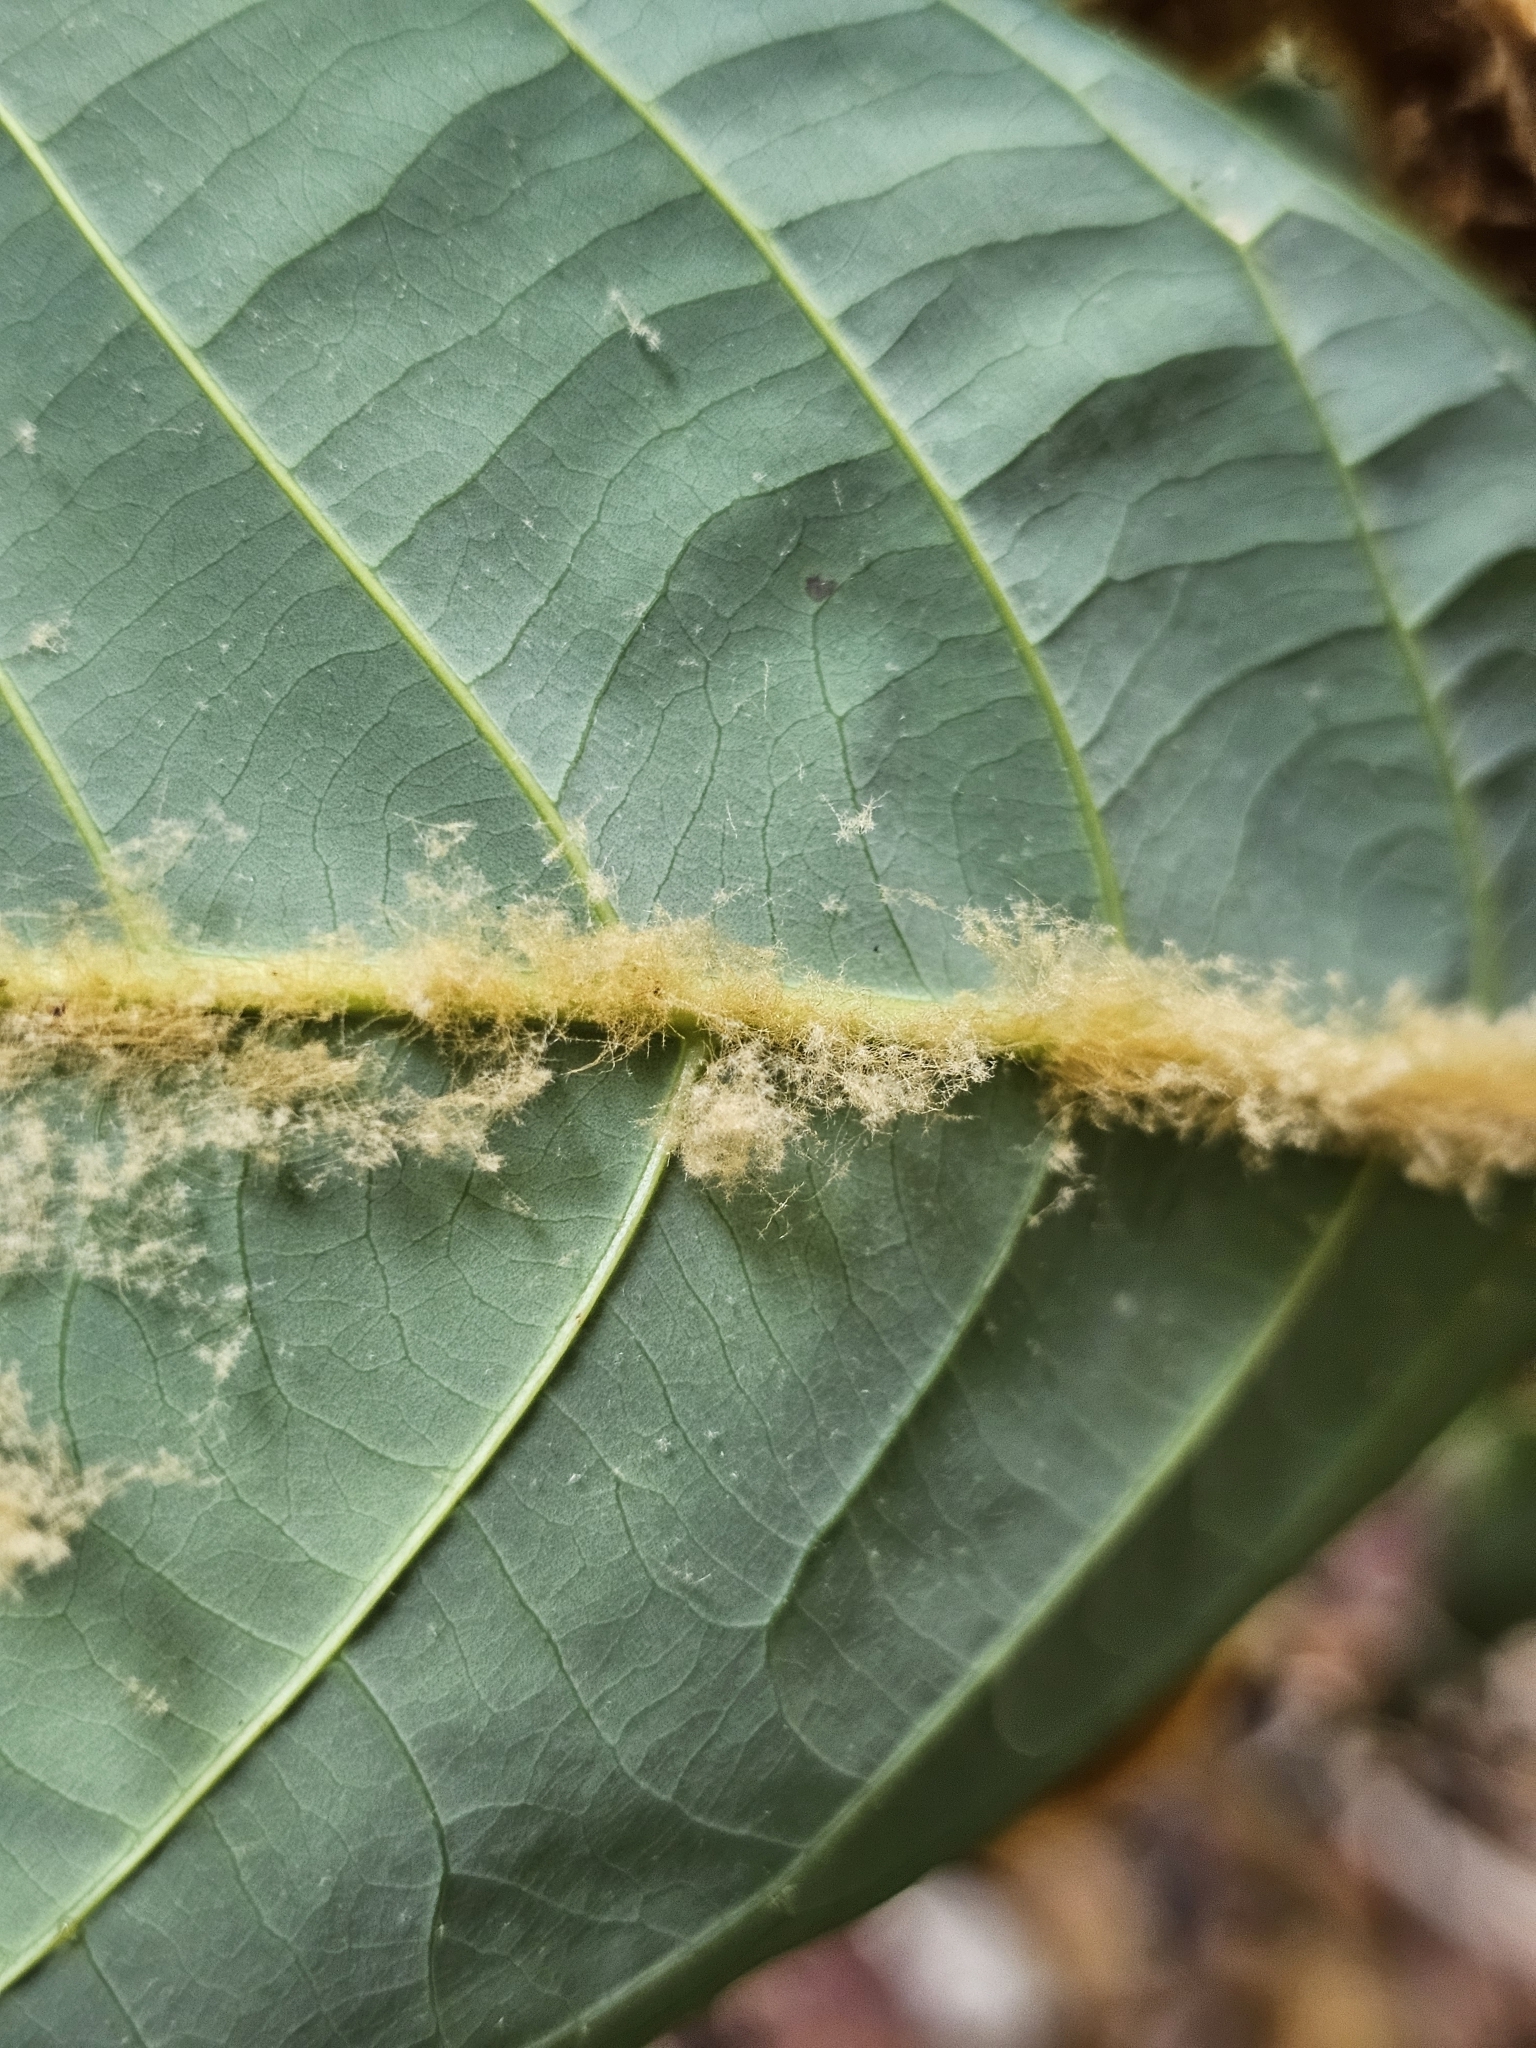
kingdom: Plantae
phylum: Tracheophyta
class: Magnoliopsida
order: Magnoliales
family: Myristicaceae
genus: Knema
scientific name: Knema hookeriana
